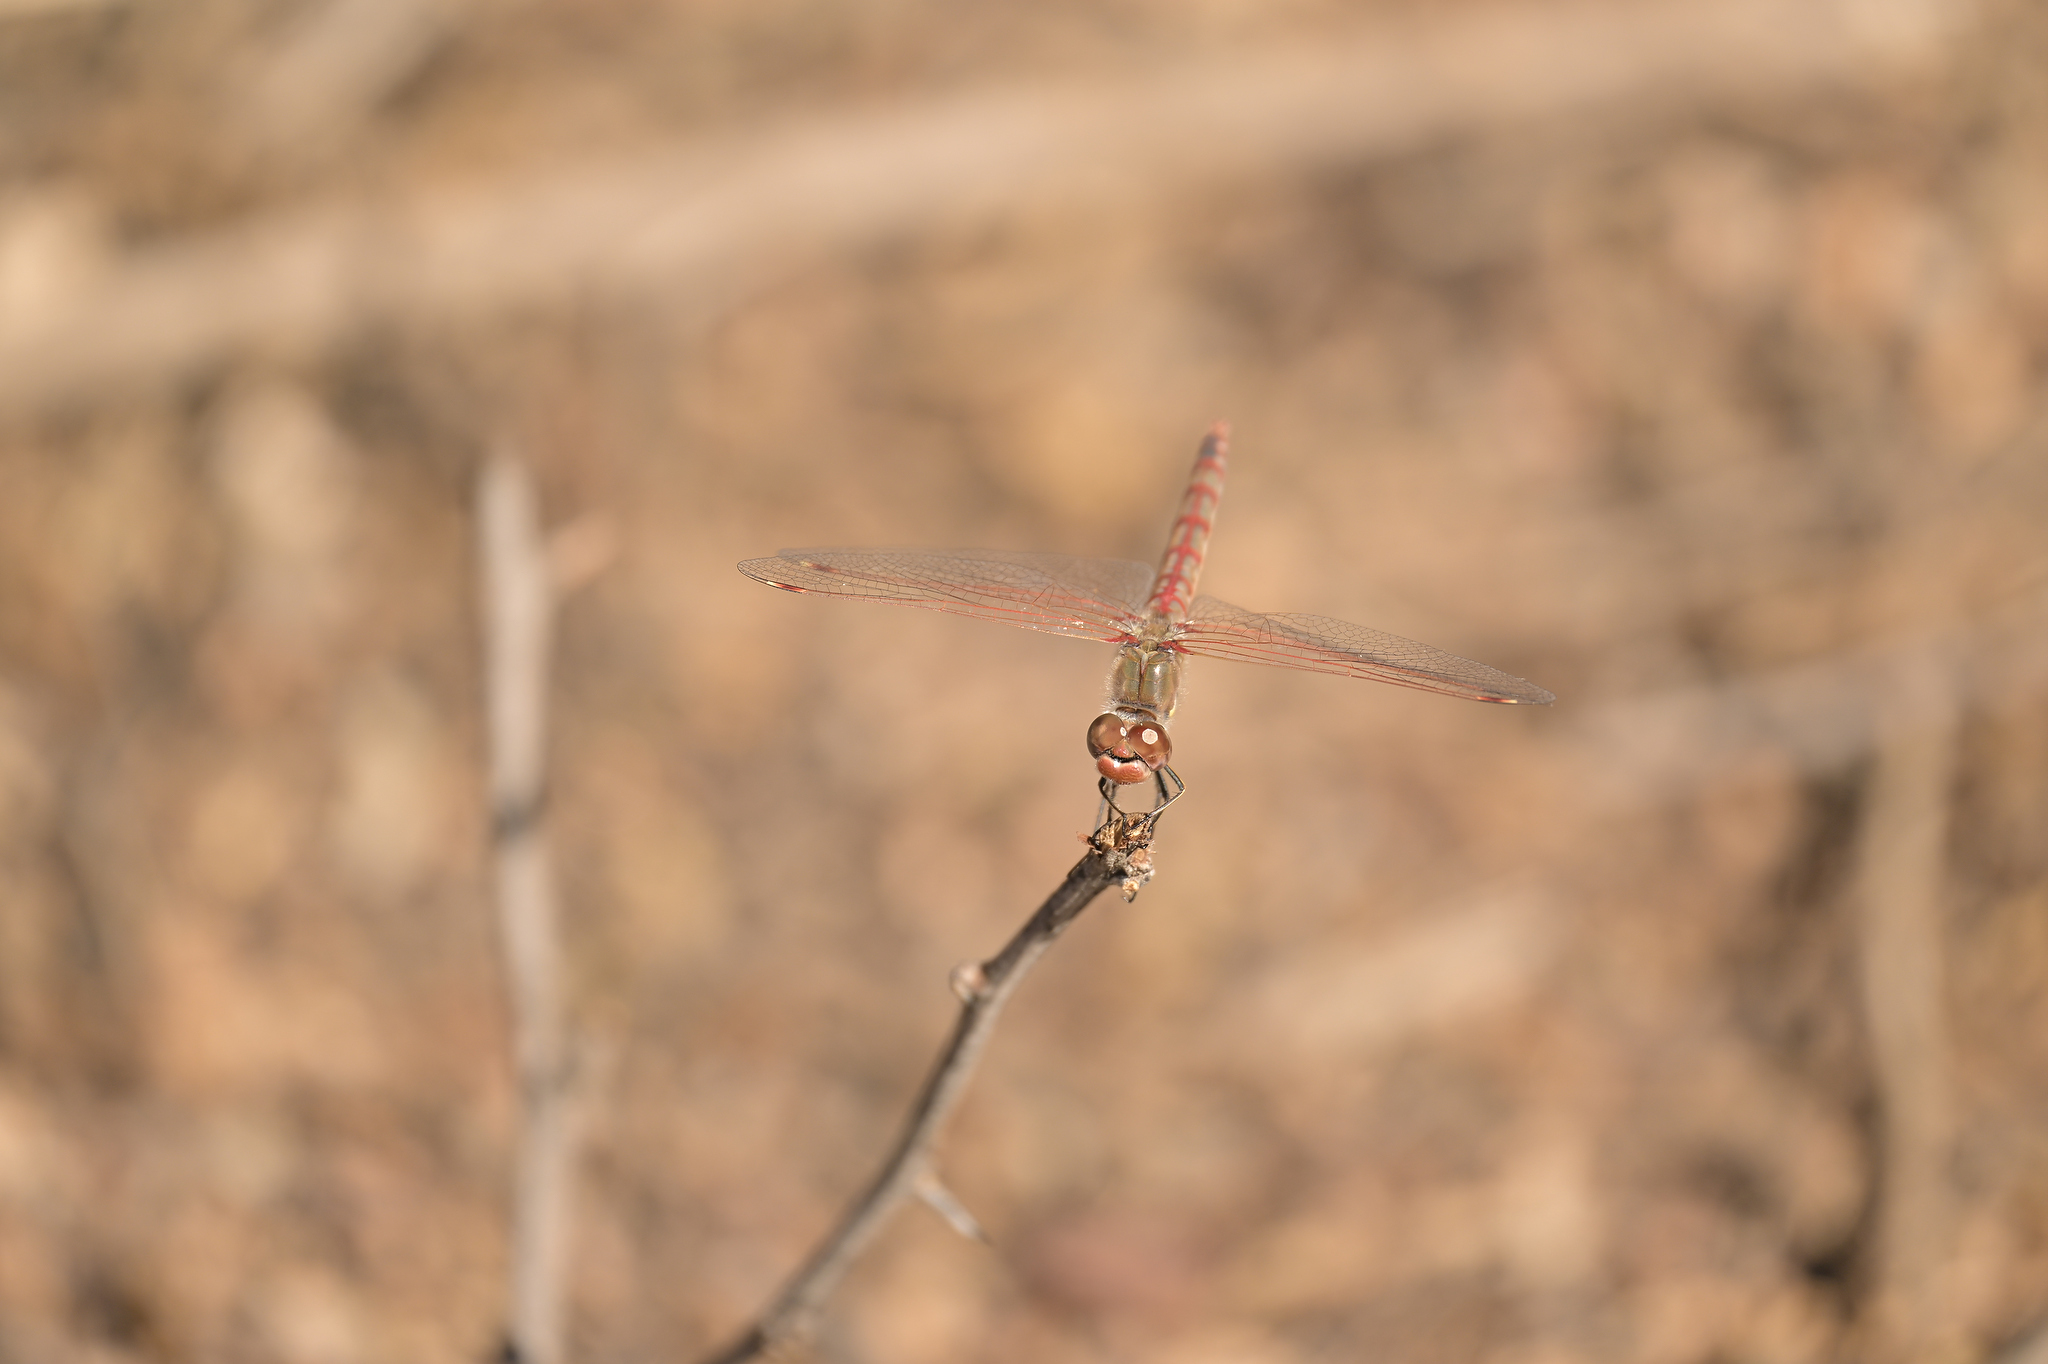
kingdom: Animalia
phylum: Arthropoda
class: Insecta
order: Odonata
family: Libellulidae
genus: Sympetrum
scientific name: Sympetrum corruptum
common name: Variegated meadowhawk
